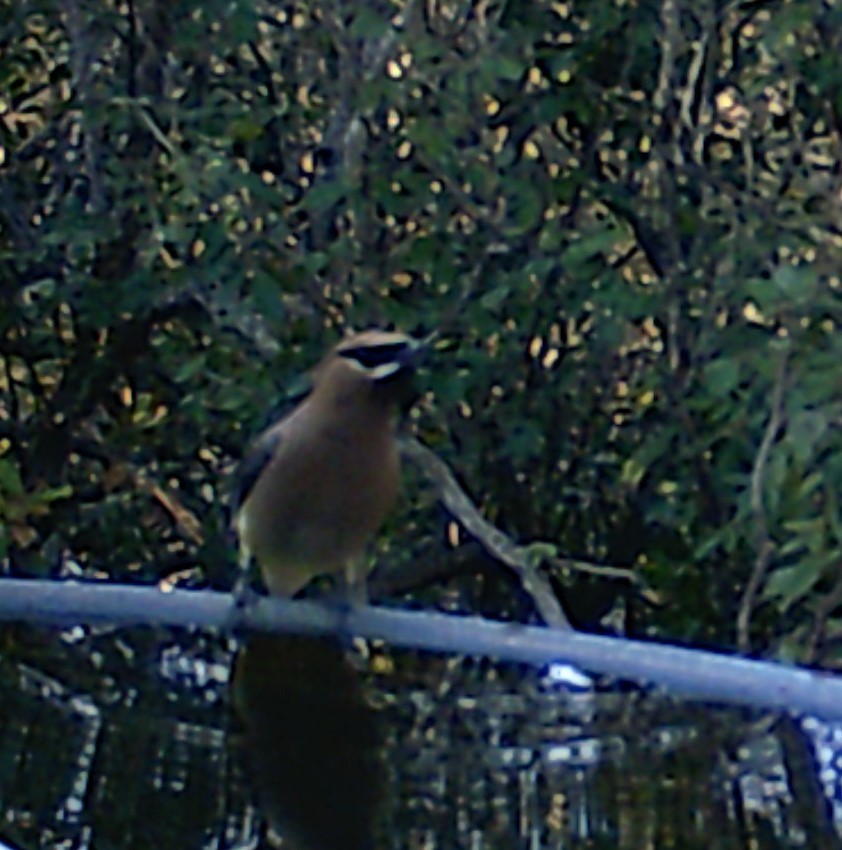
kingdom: Animalia
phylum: Chordata
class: Aves
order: Passeriformes
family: Bombycillidae
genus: Bombycilla
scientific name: Bombycilla cedrorum
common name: Cedar waxwing
